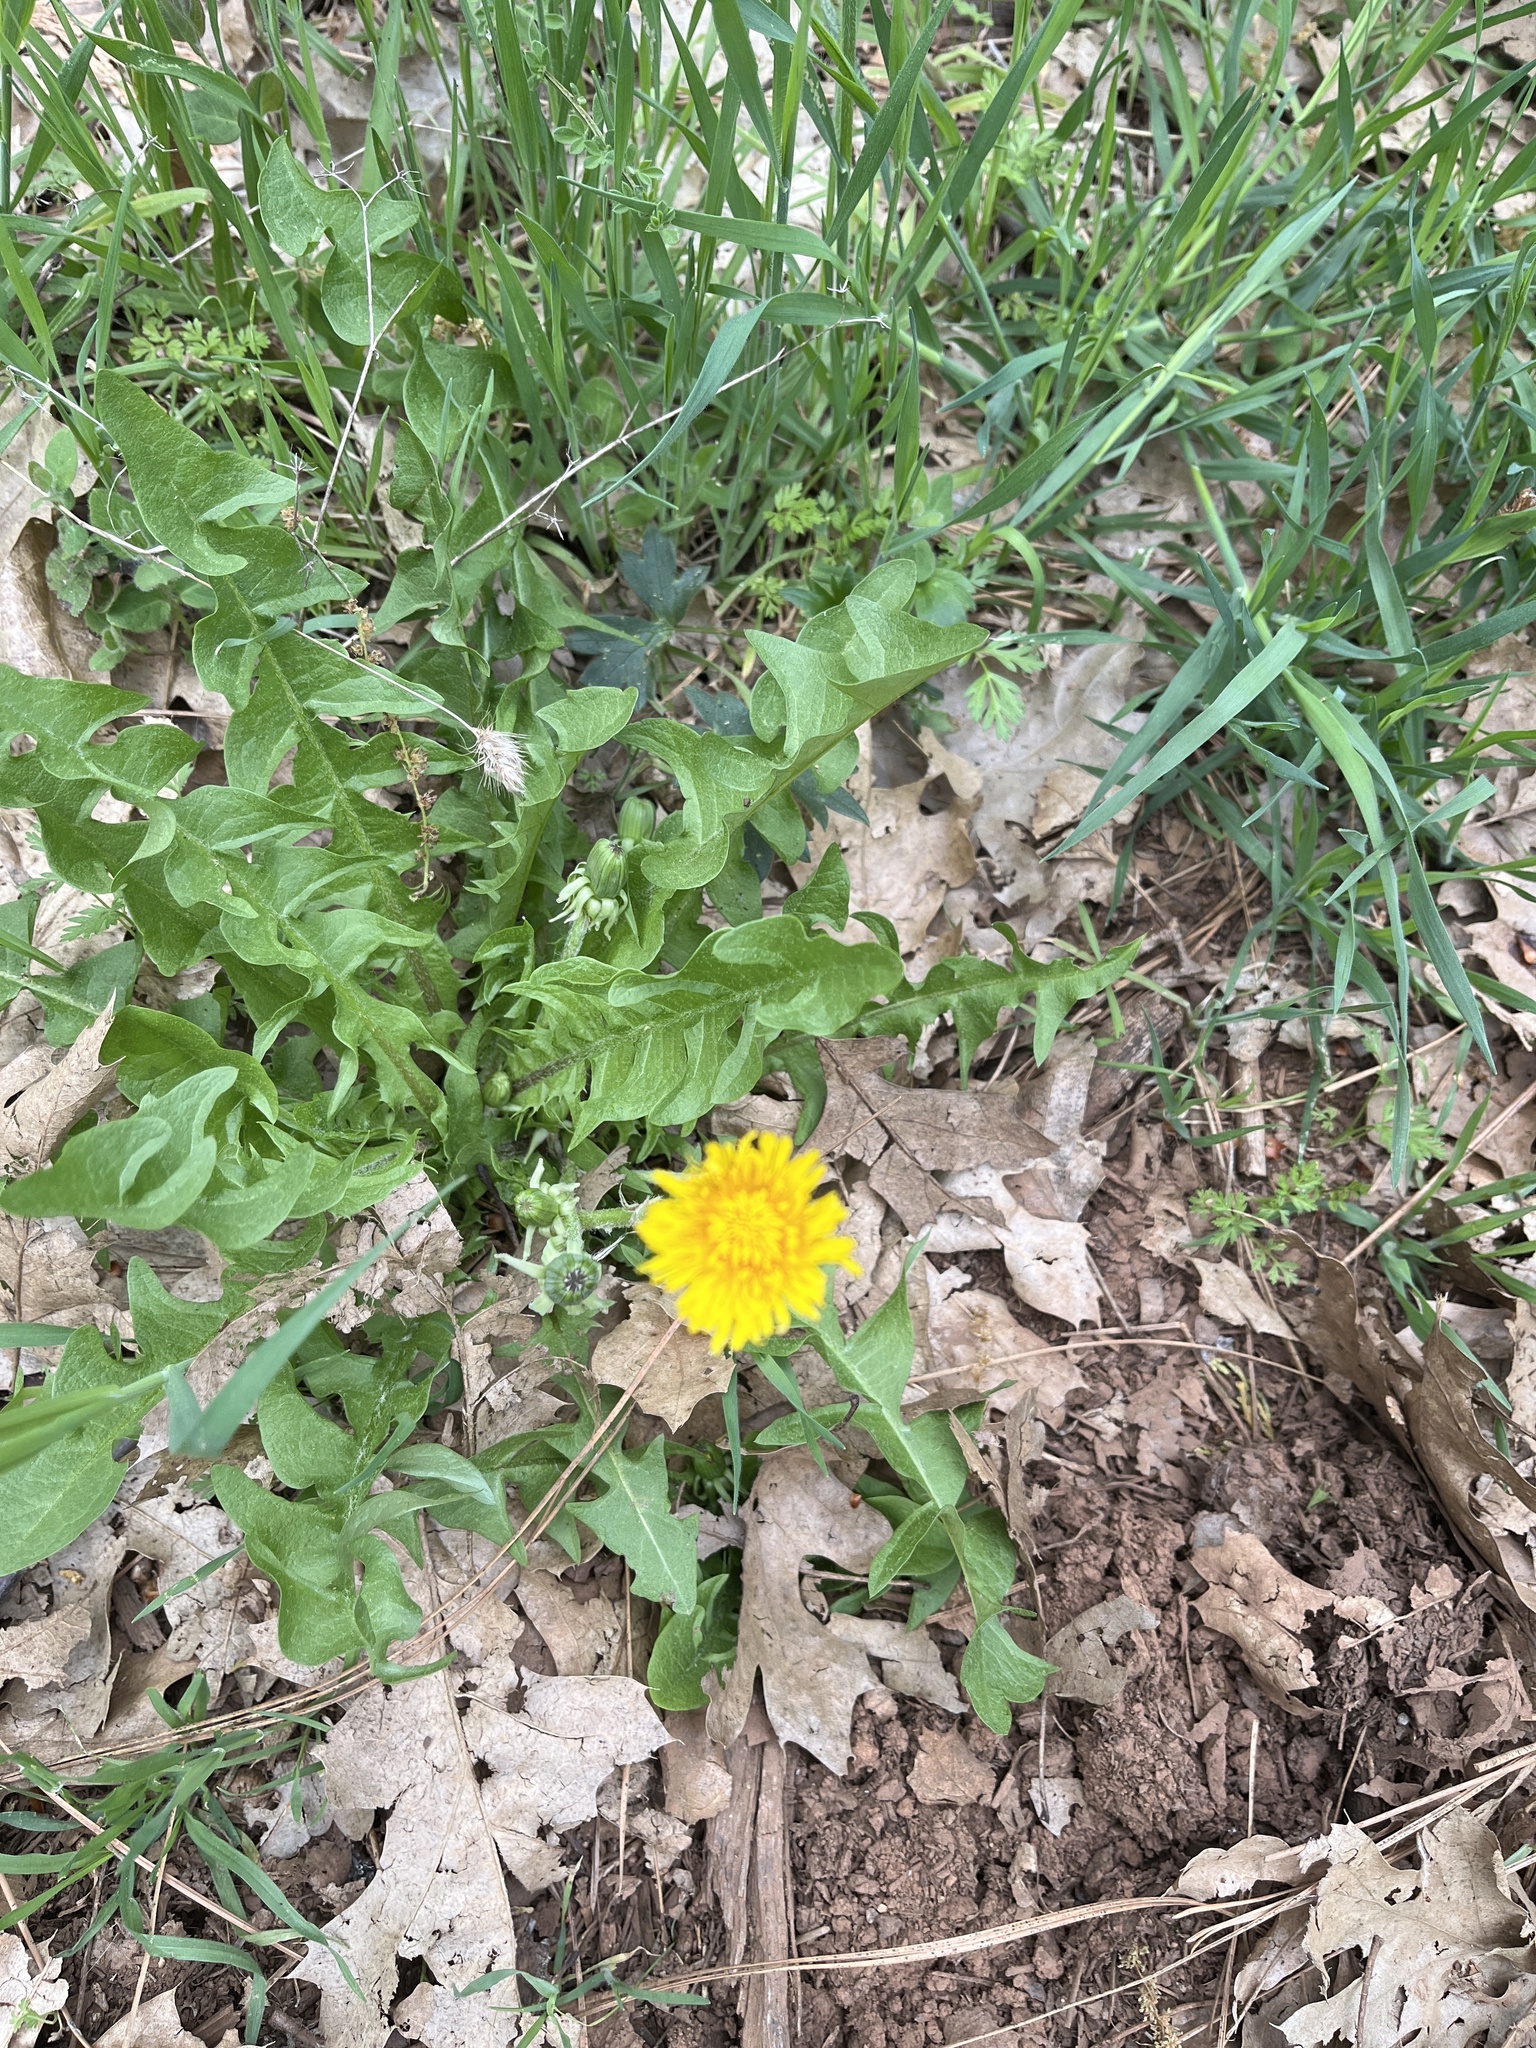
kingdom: Plantae
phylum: Tracheophyta
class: Magnoliopsida
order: Asterales
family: Asteraceae
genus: Taraxacum
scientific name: Taraxacum officinale
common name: Common dandelion
